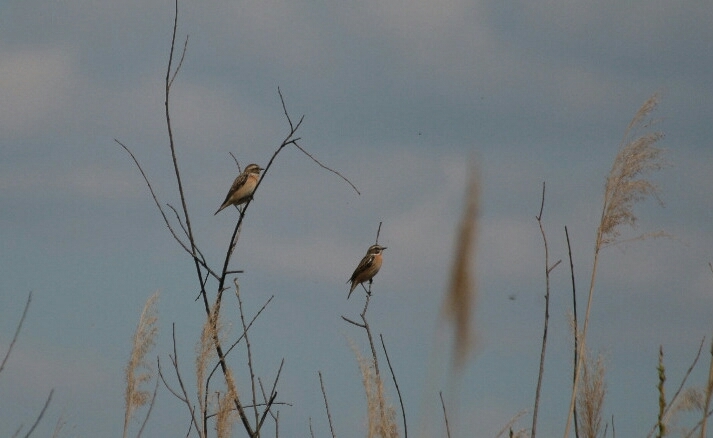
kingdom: Animalia
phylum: Chordata
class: Aves
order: Passeriformes
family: Muscicapidae
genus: Saxicola
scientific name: Saxicola rubetra
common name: Whinchat
